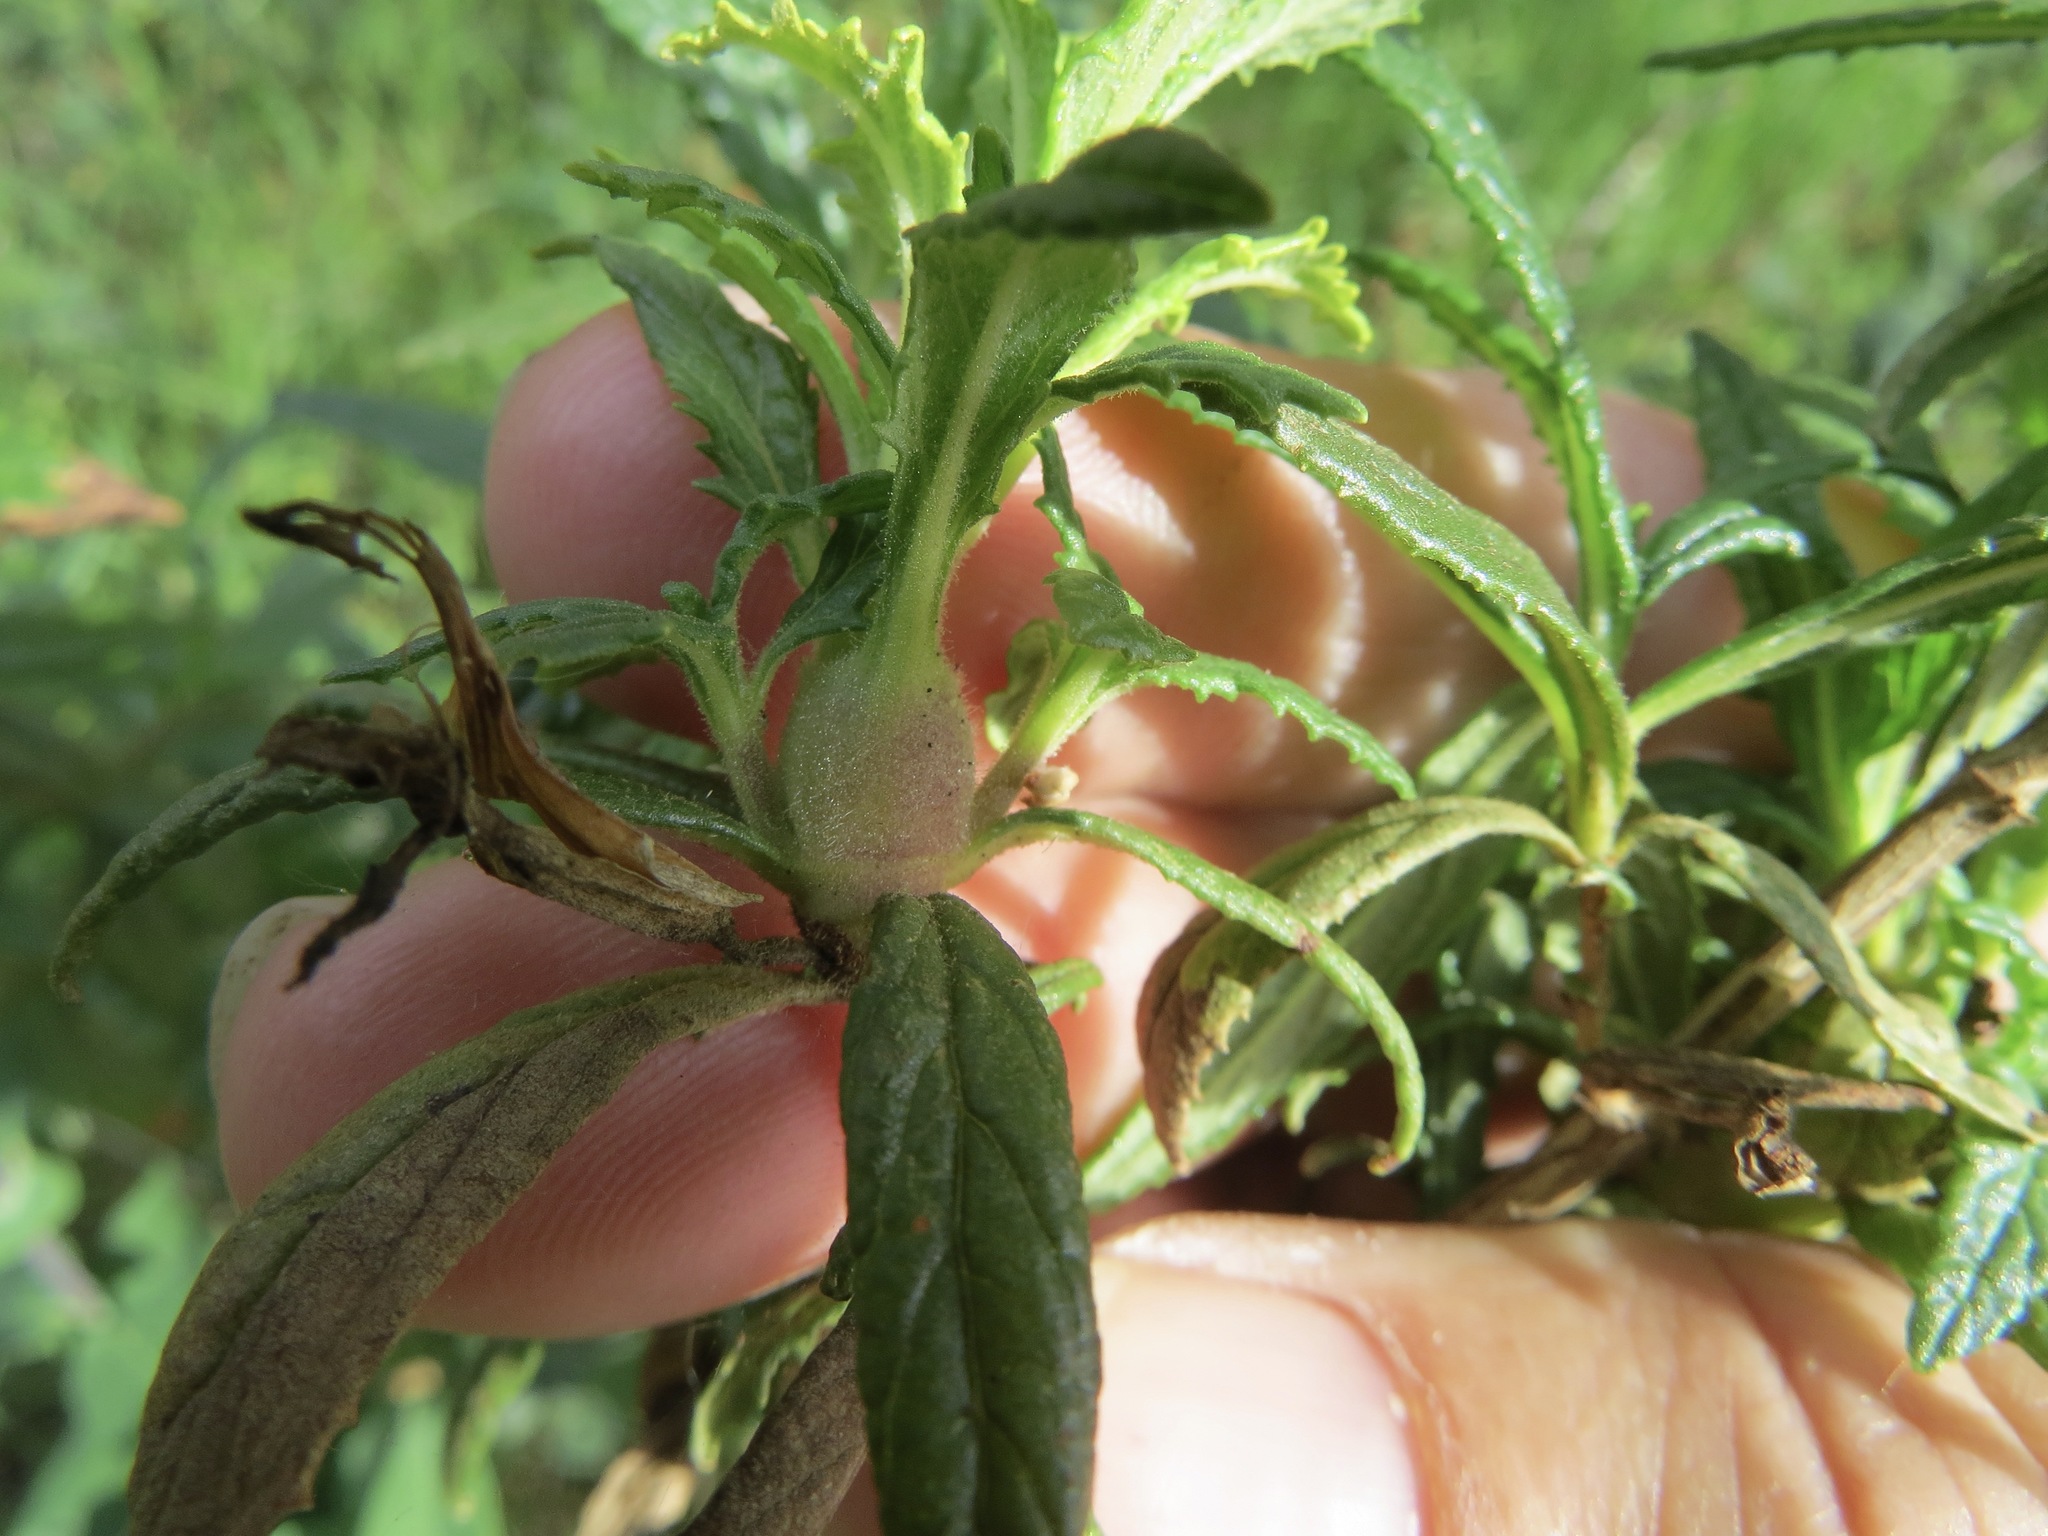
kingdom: Animalia
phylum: Arthropoda
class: Insecta
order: Diptera
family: Cecidomyiidae
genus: Neolasioptera
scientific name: Neolasioptera mimuli
